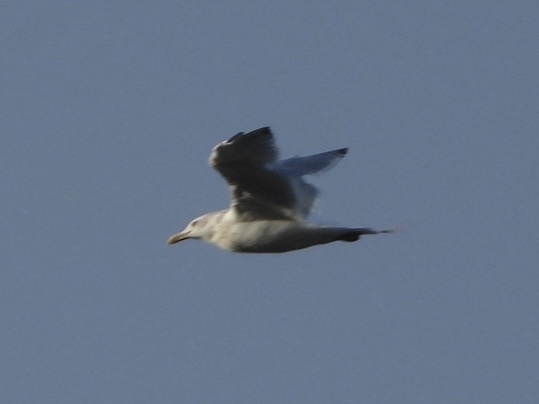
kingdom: Animalia
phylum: Chordata
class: Aves
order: Charadriiformes
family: Laridae
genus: Larus
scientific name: Larus argentatus
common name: Herring gull
